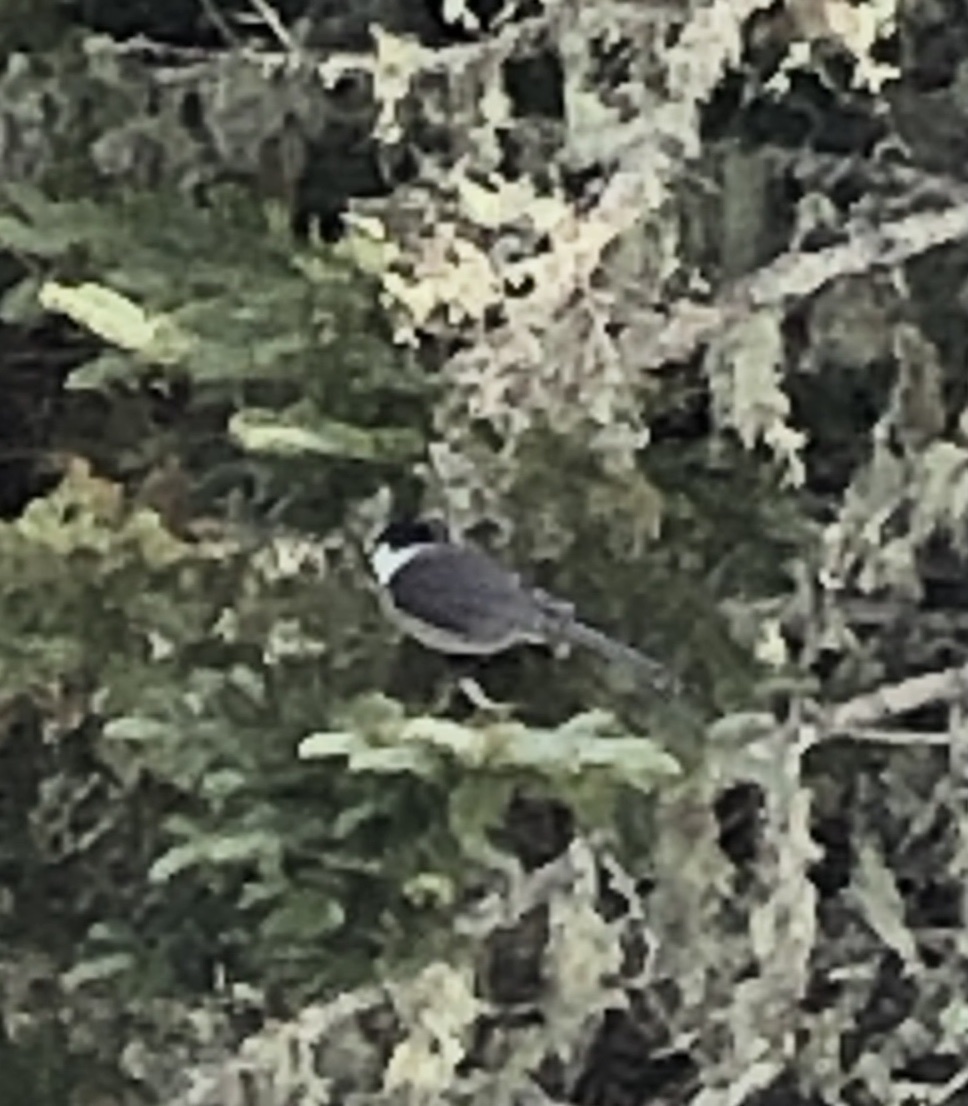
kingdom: Animalia
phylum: Chordata
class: Aves
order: Passeriformes
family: Corvidae
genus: Perisoreus
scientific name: Perisoreus canadensis
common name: Gray jay
